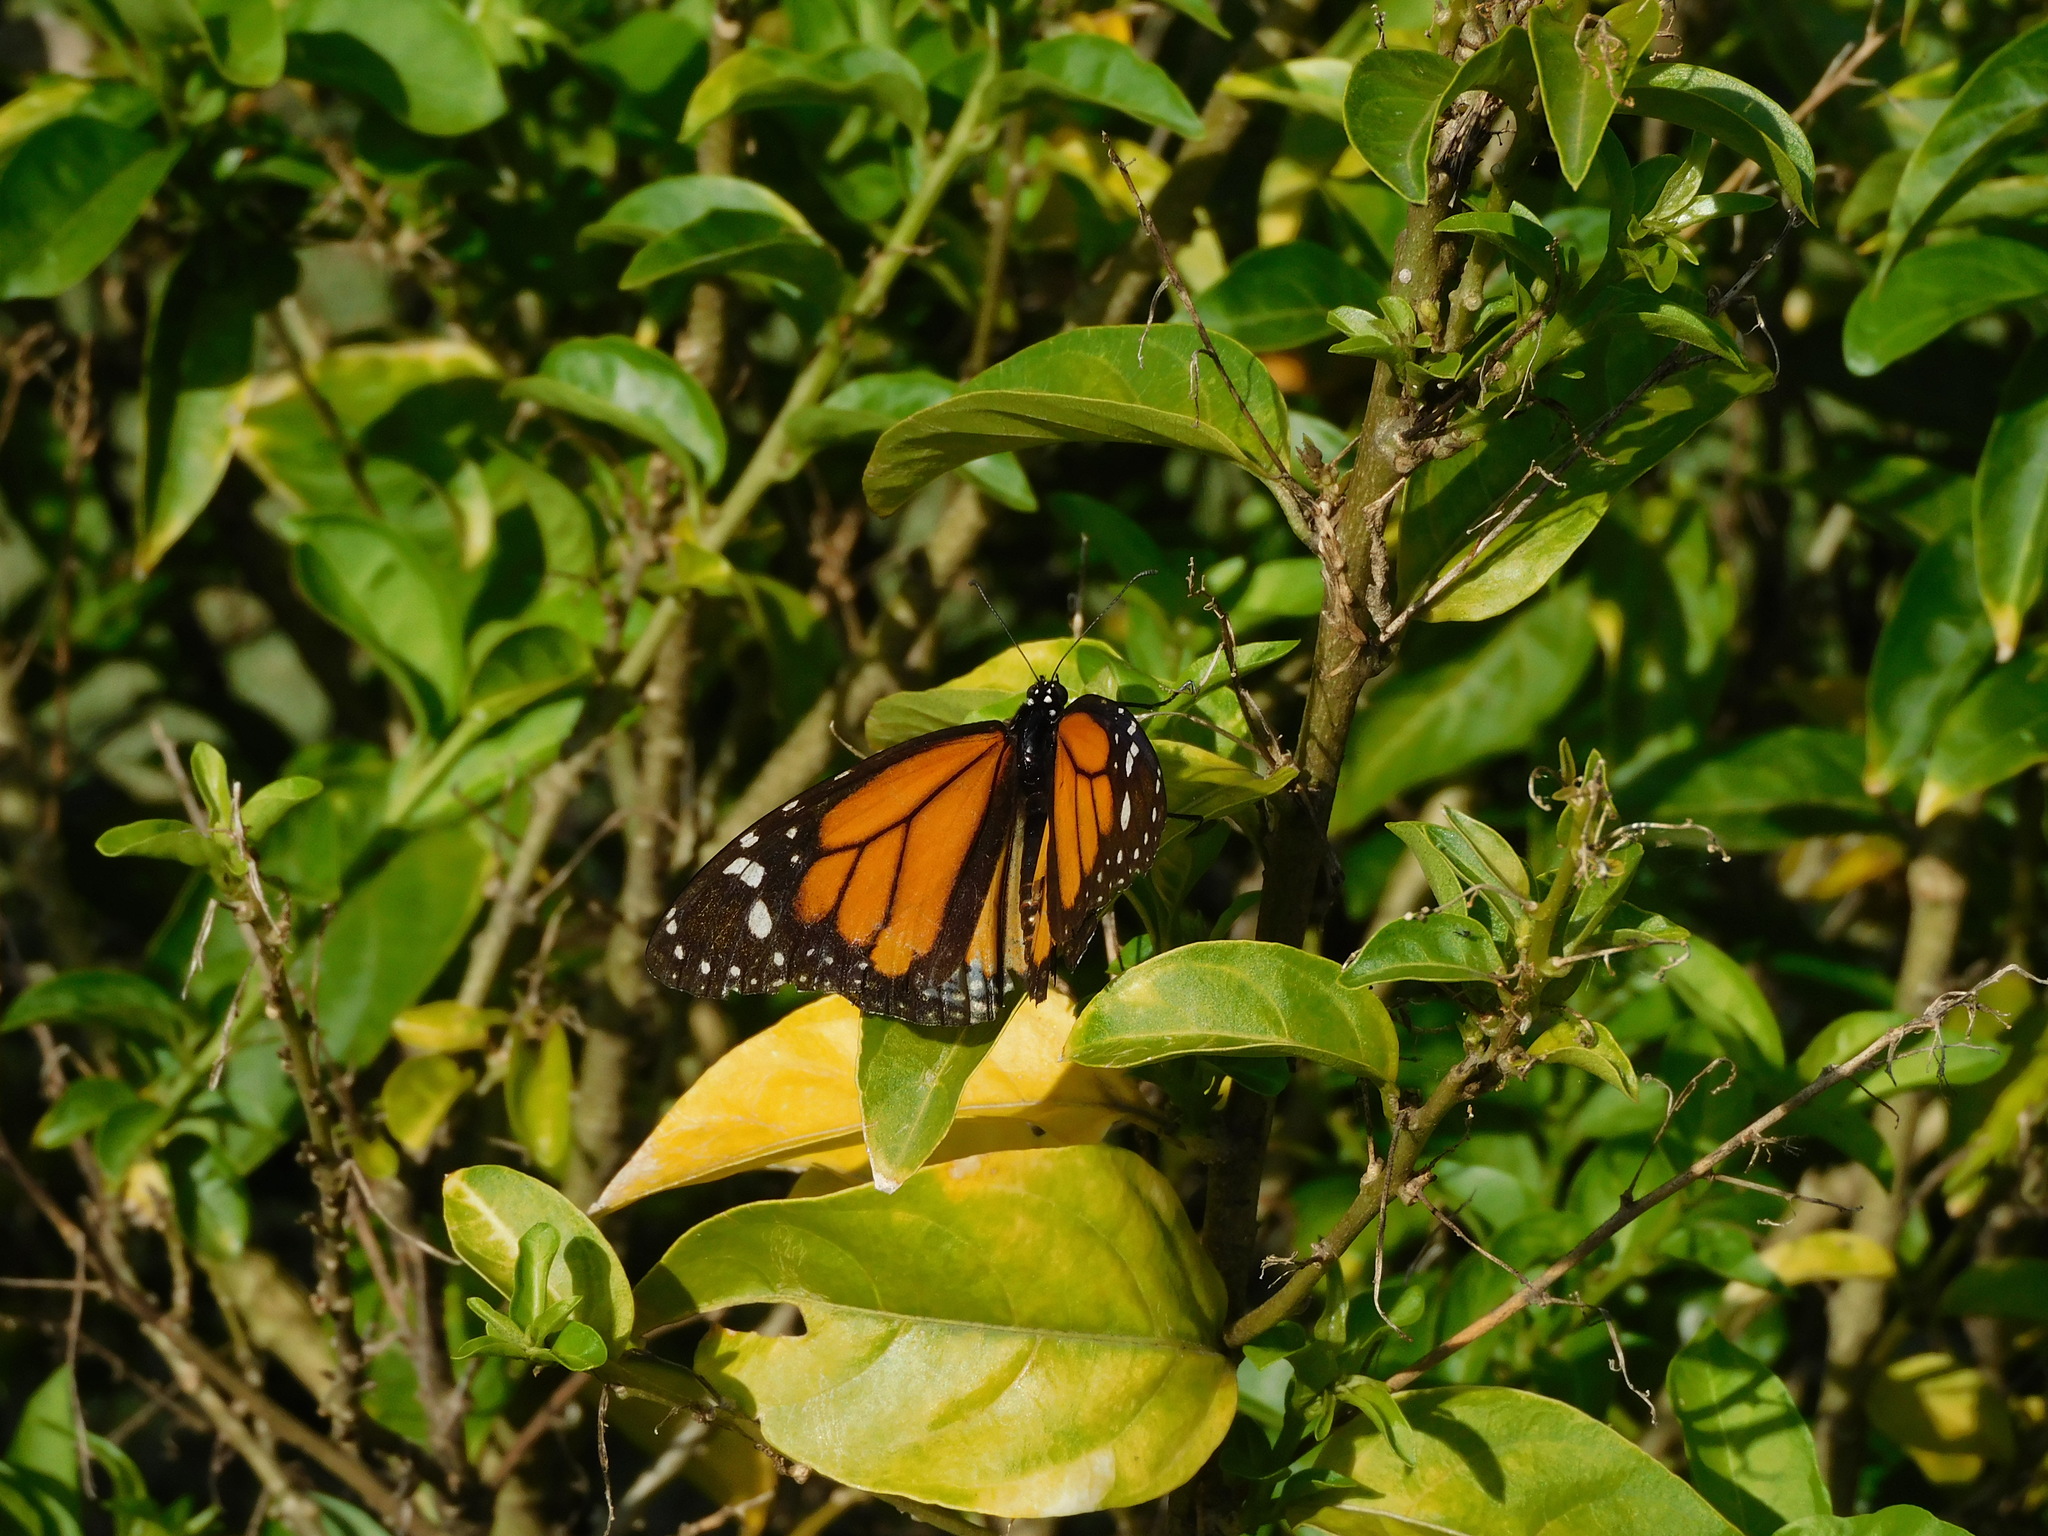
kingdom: Animalia
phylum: Arthropoda
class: Insecta
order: Lepidoptera
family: Nymphalidae
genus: Danaus
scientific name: Danaus plexippus
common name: Monarch
